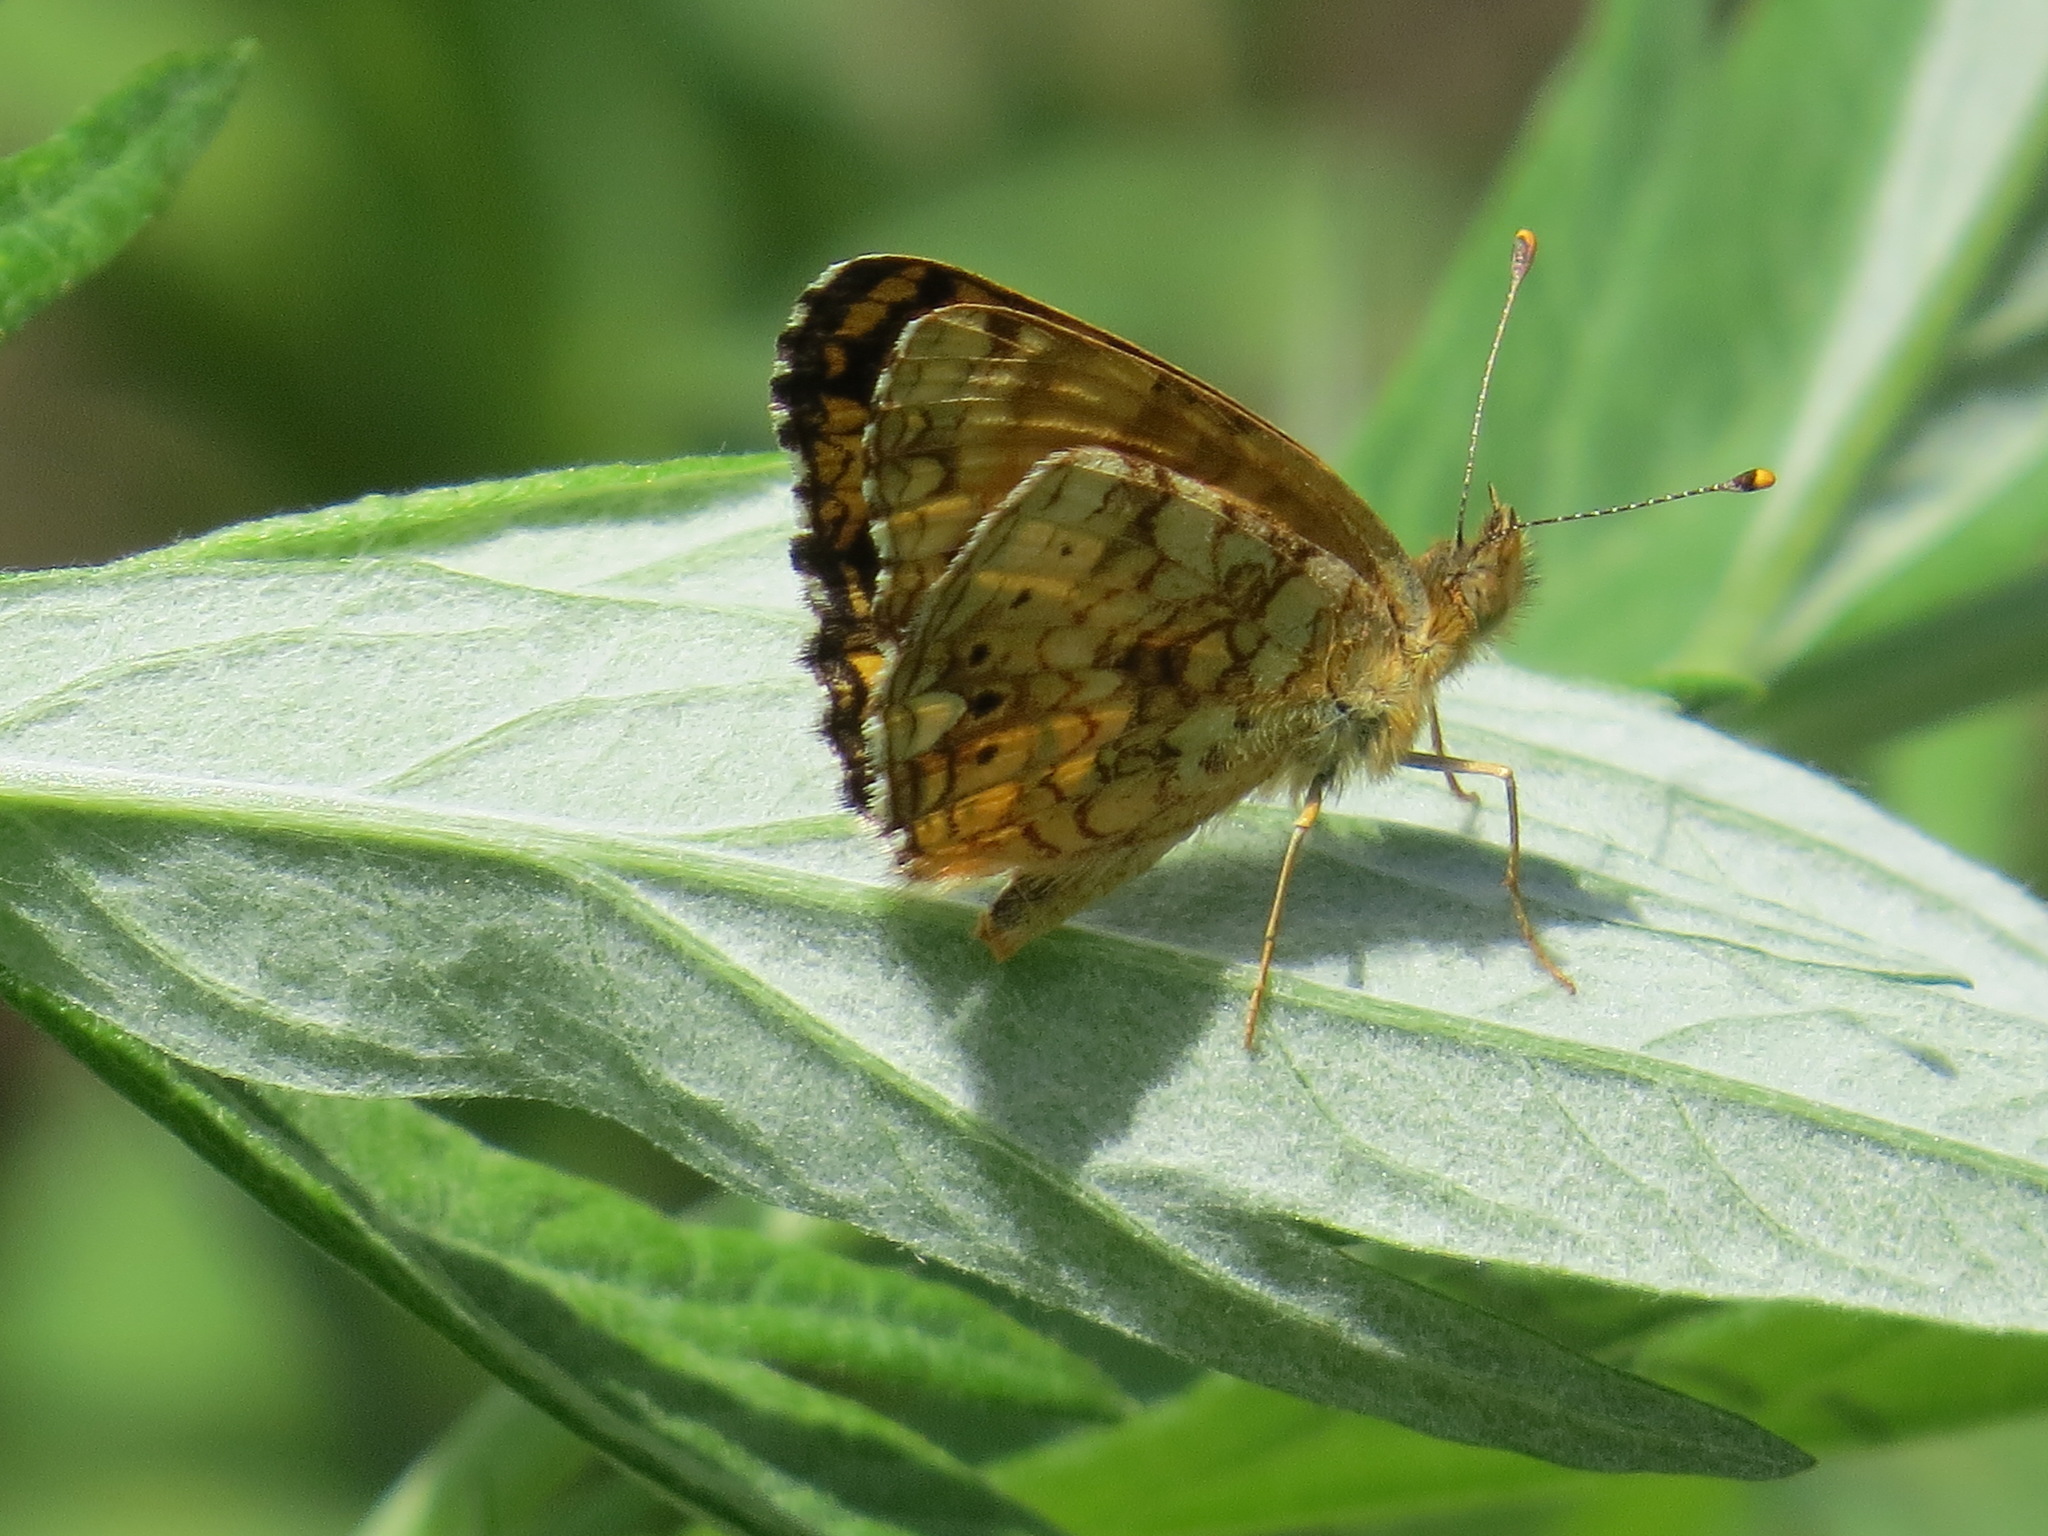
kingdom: Animalia
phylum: Arthropoda
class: Insecta
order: Lepidoptera
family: Nymphalidae
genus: Eresia
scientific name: Eresia aveyrona
